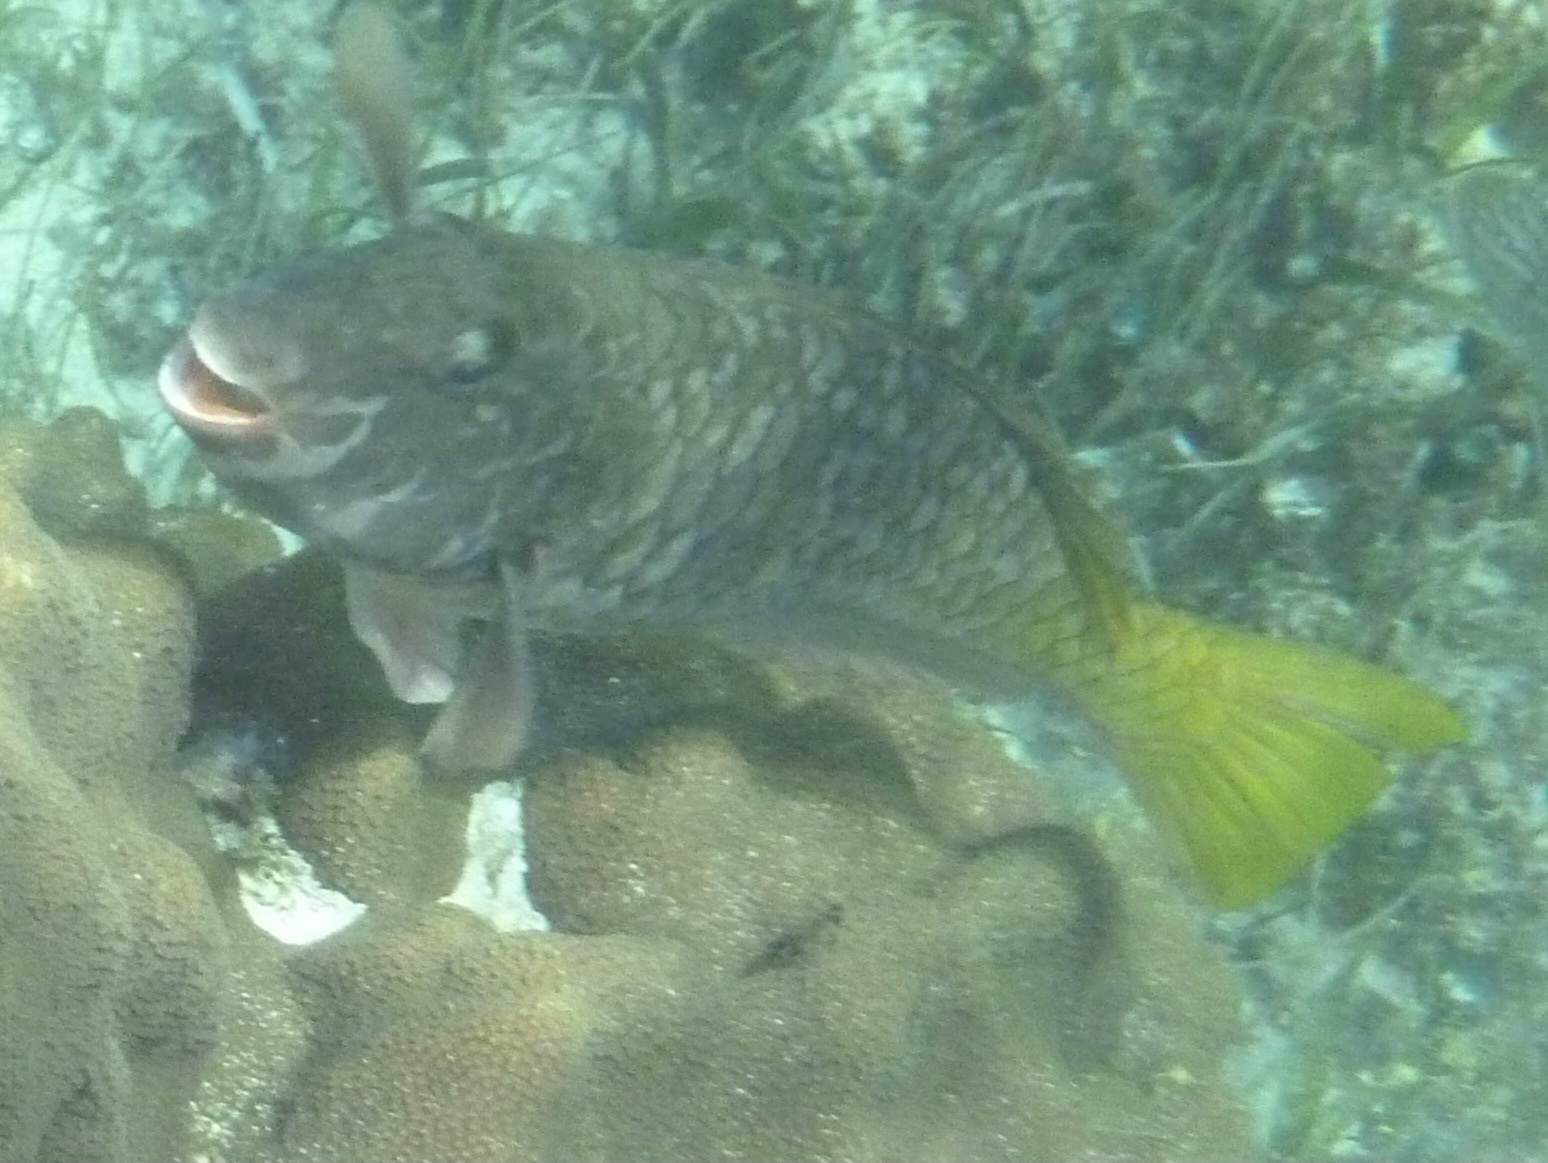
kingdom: Animalia
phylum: Chordata
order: Perciformes
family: Scaridae
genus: Sparisoma
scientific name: Sparisoma rubripinne
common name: Redfin parrotfish
